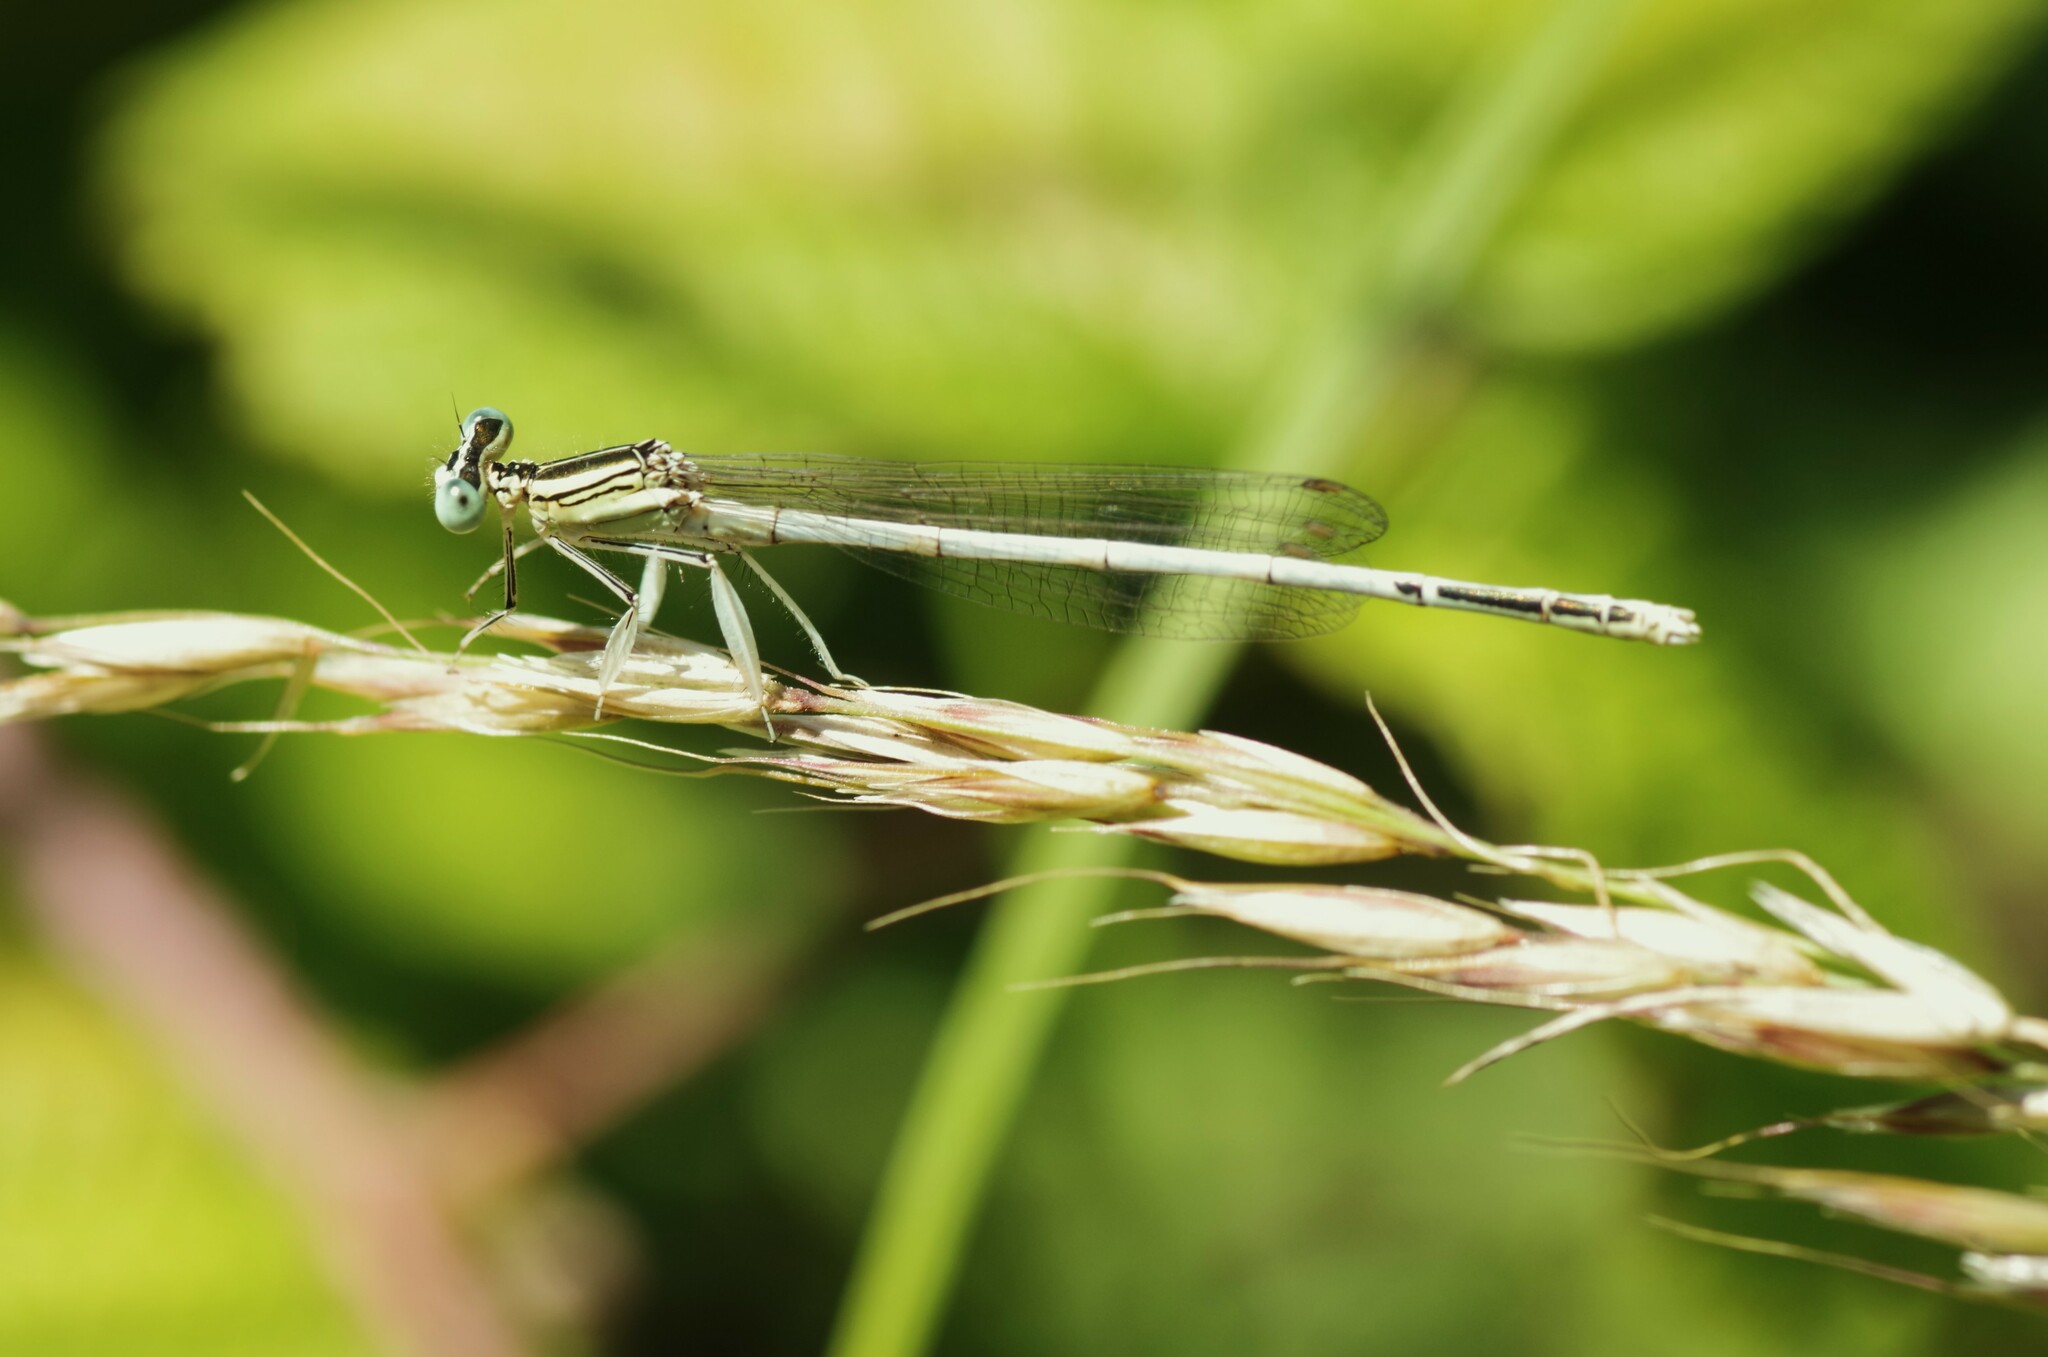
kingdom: Animalia
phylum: Arthropoda
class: Insecta
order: Odonata
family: Platycnemididae
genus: Platycnemis
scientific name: Platycnemis latipes
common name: White featherleg
